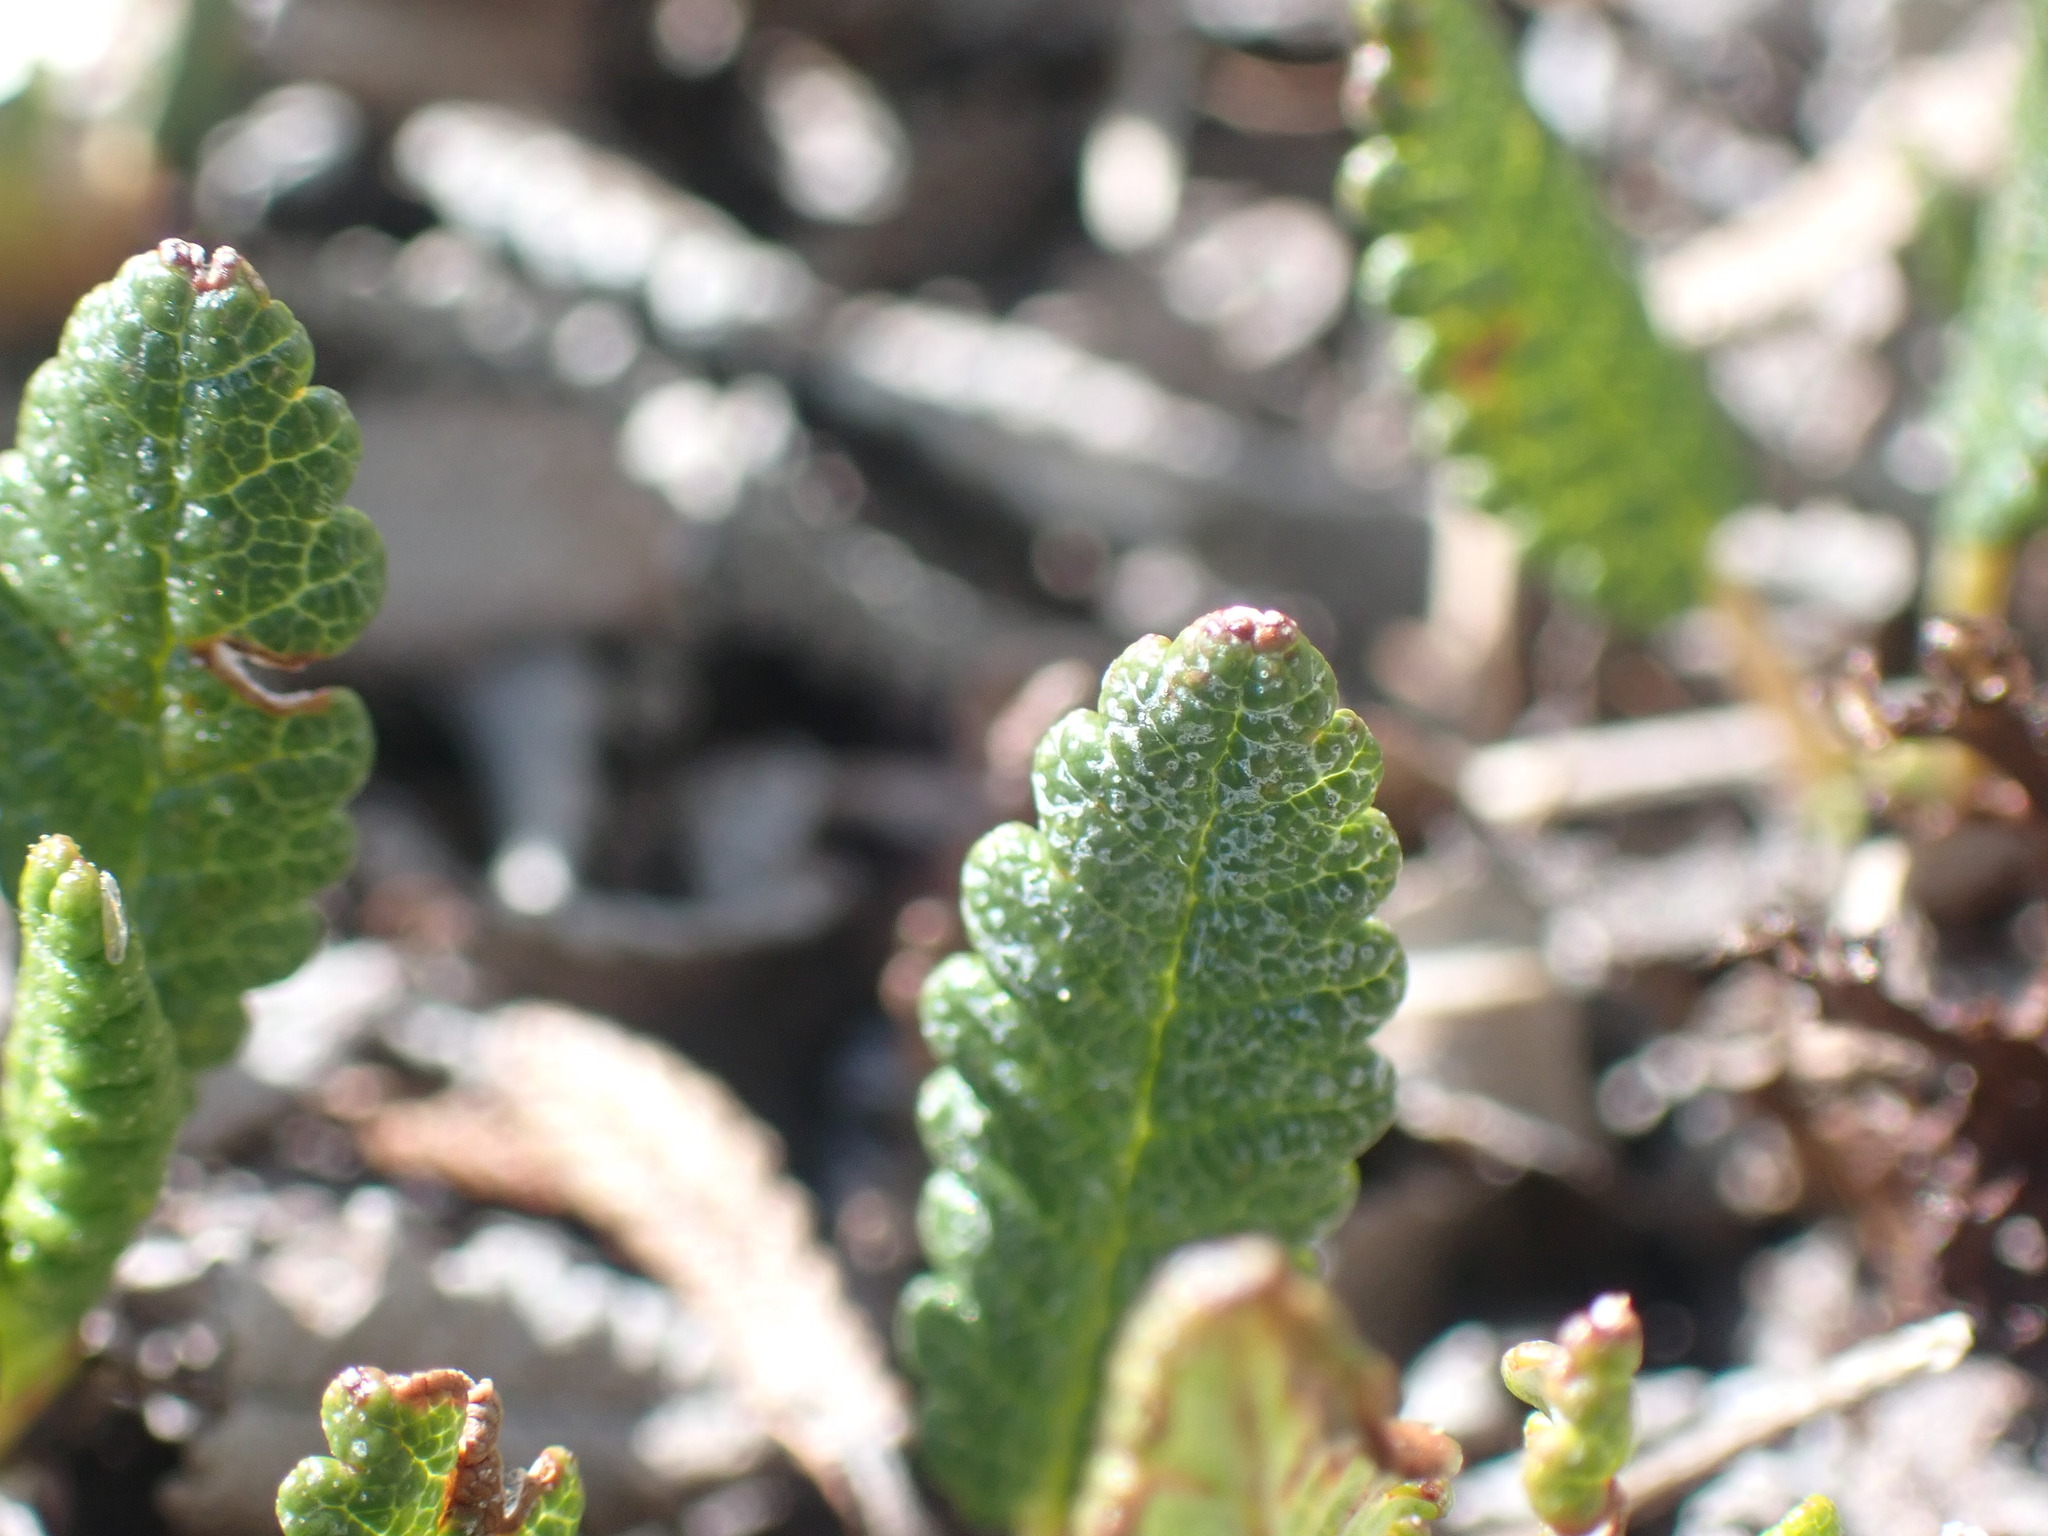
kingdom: Plantae
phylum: Tracheophyta
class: Magnoliopsida
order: Rosales
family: Rosaceae
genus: Dryas
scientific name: Dryas octopetala
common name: Eight-petal mountain-avens
